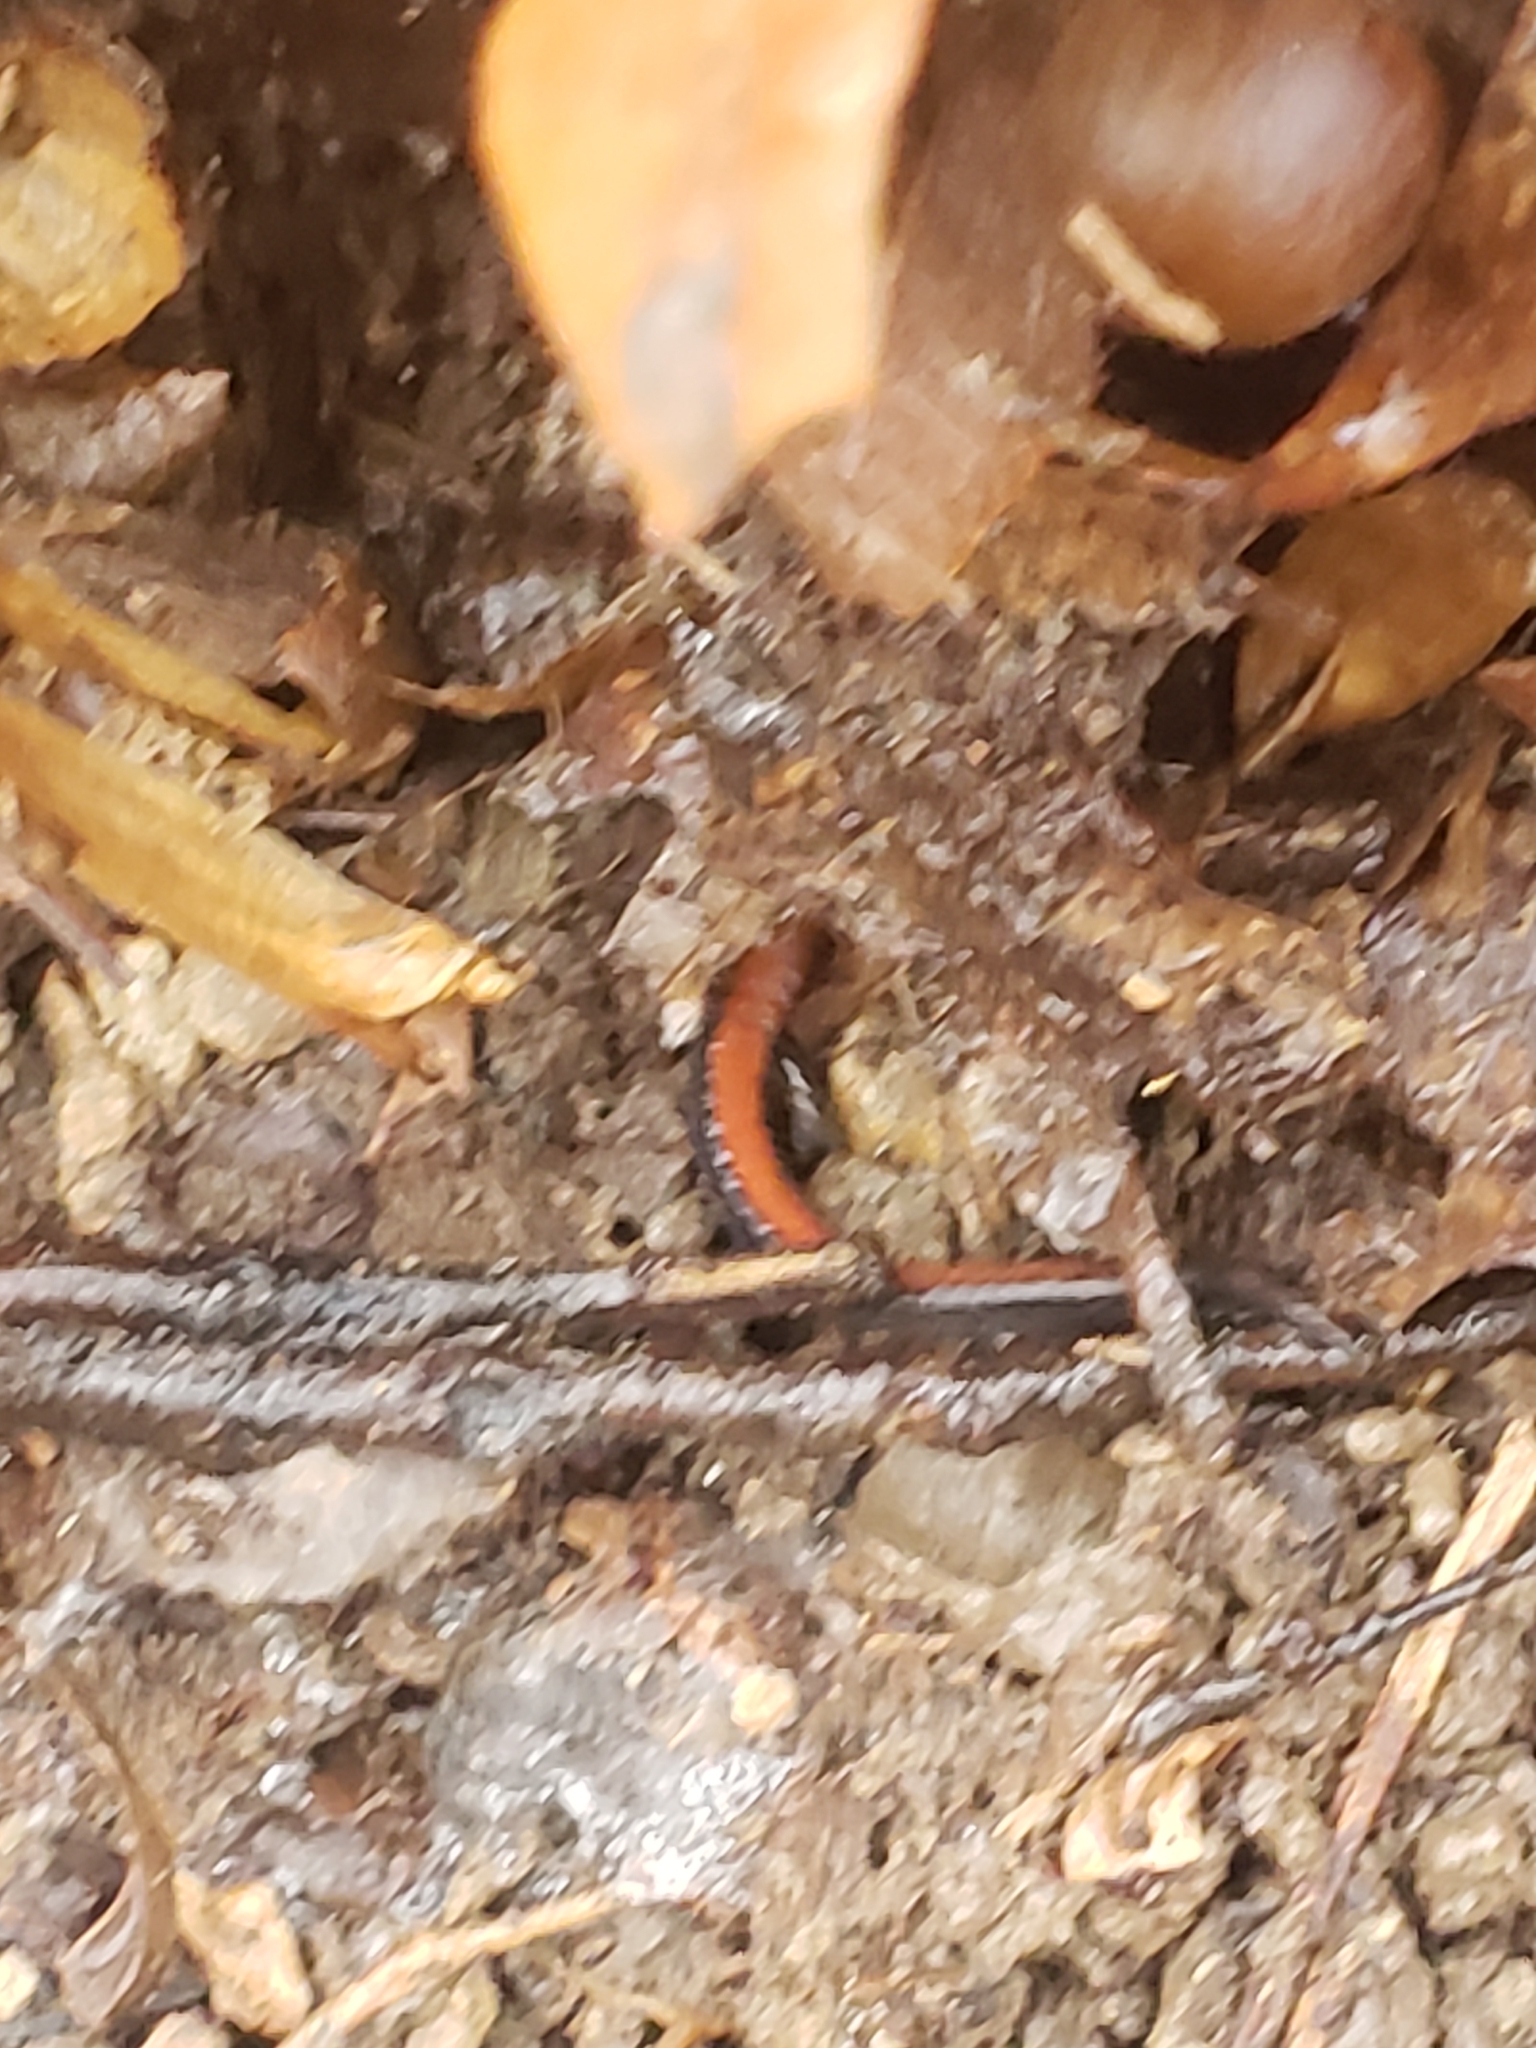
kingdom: Animalia
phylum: Chordata
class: Amphibia
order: Caudata
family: Plethodontidae
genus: Plethodon
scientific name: Plethodon cinereus
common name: Redback salamander
